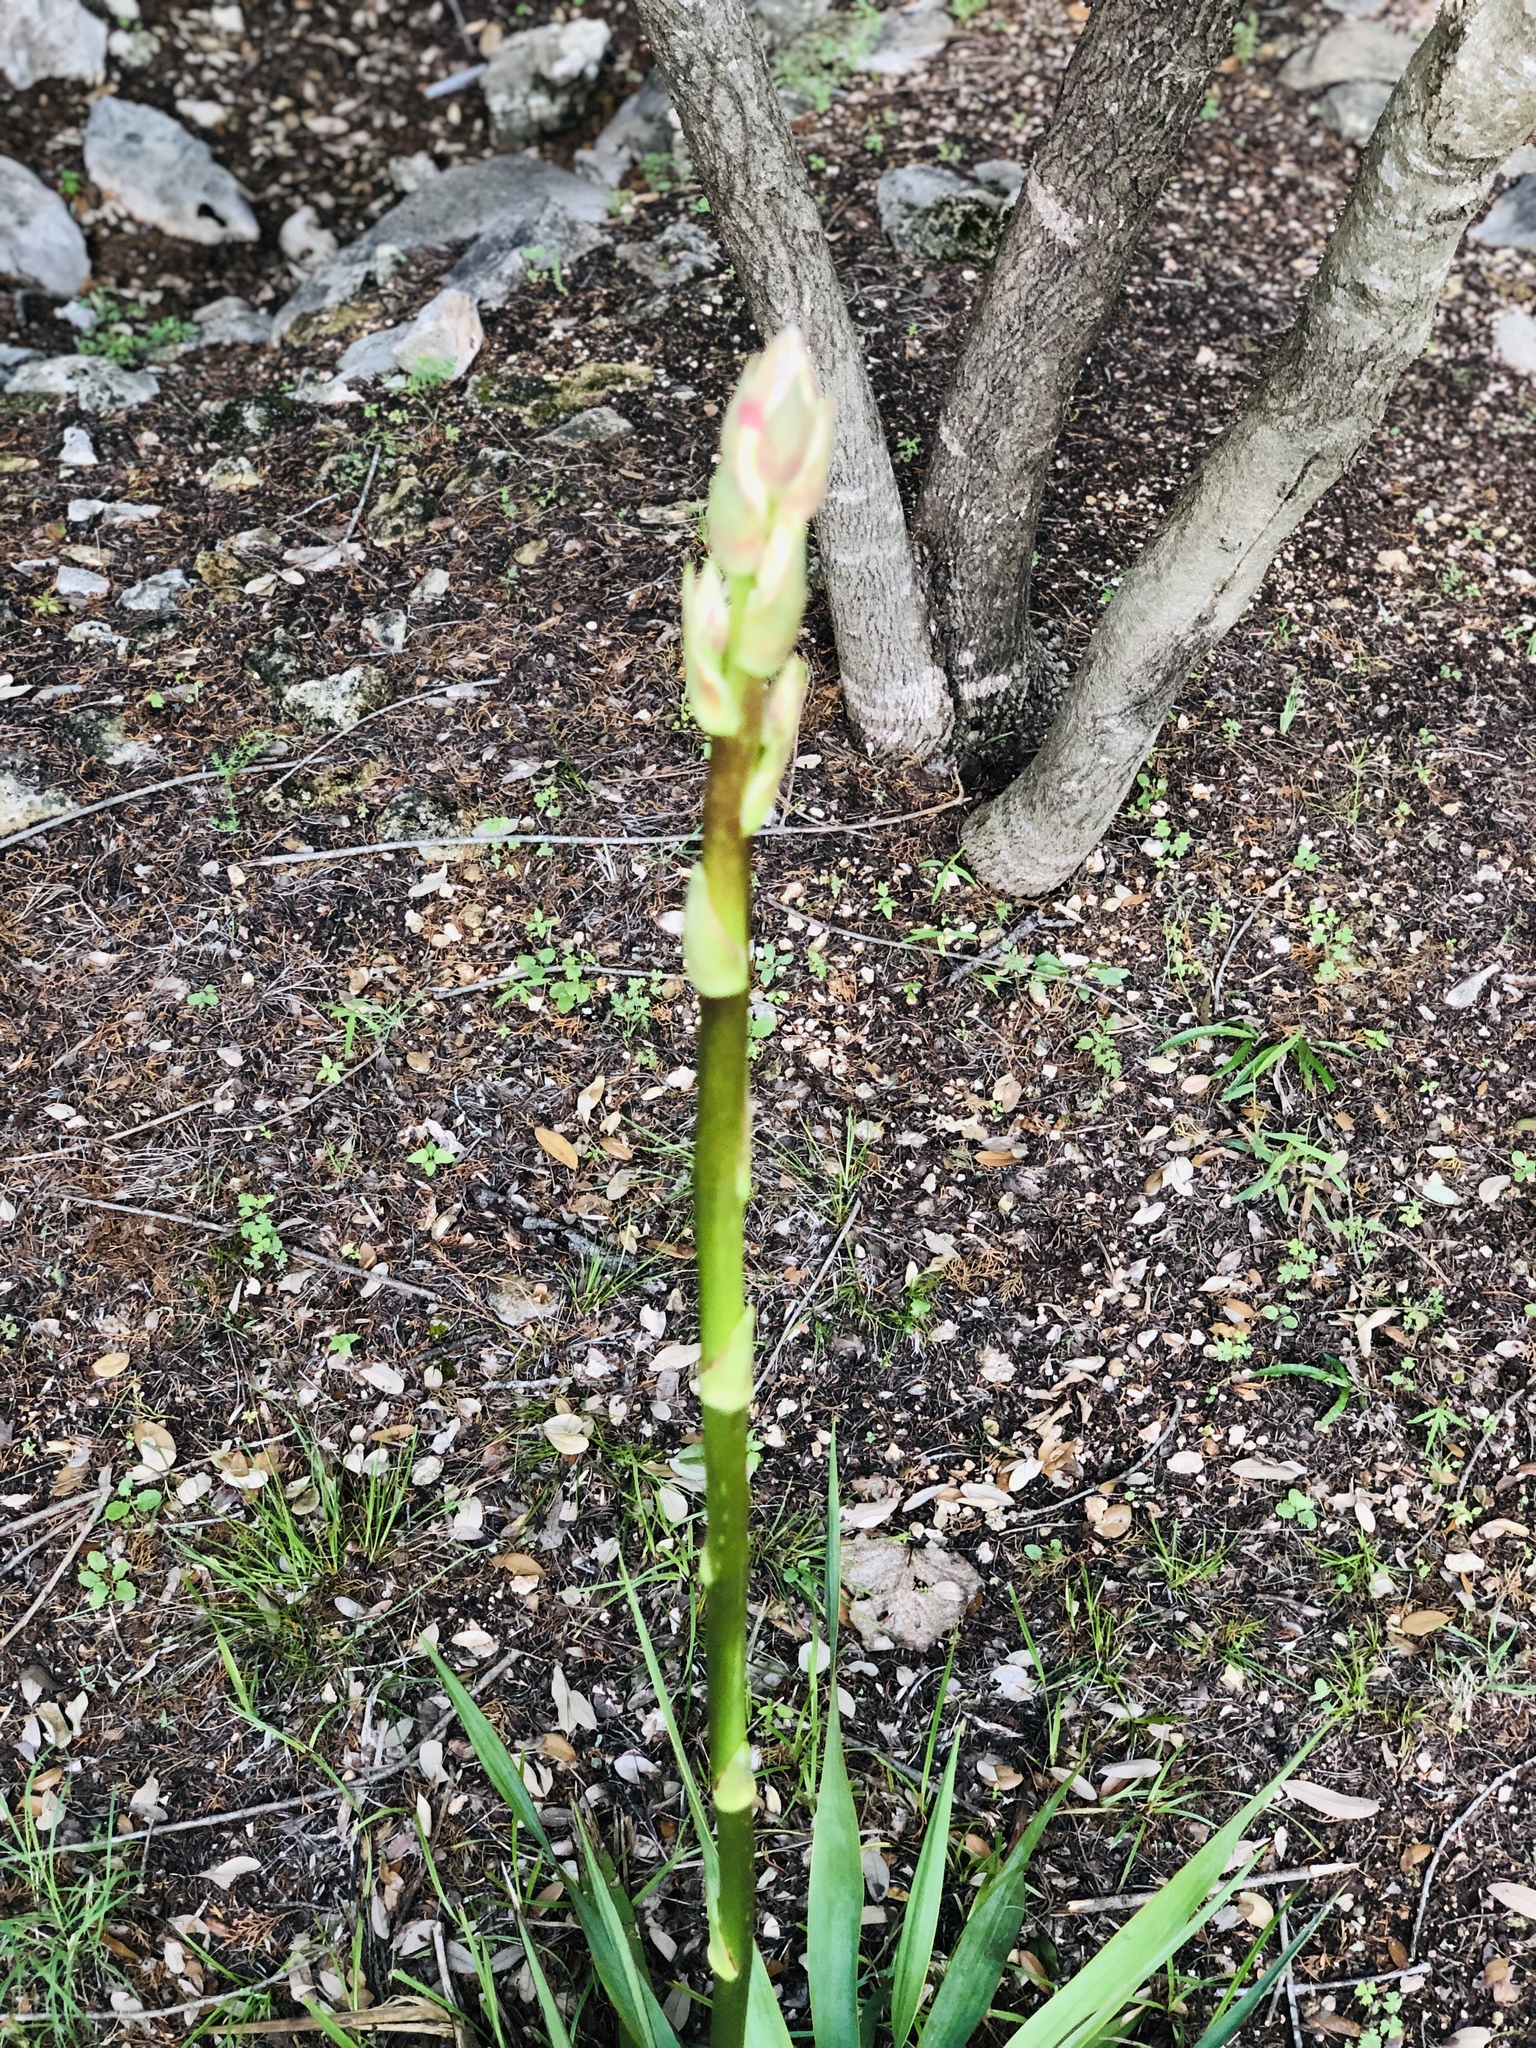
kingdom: Plantae
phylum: Tracheophyta
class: Liliopsida
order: Asparagales
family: Asparagaceae
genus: Yucca
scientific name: Yucca rupicola
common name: Twisted-leaf spanish-dagger
